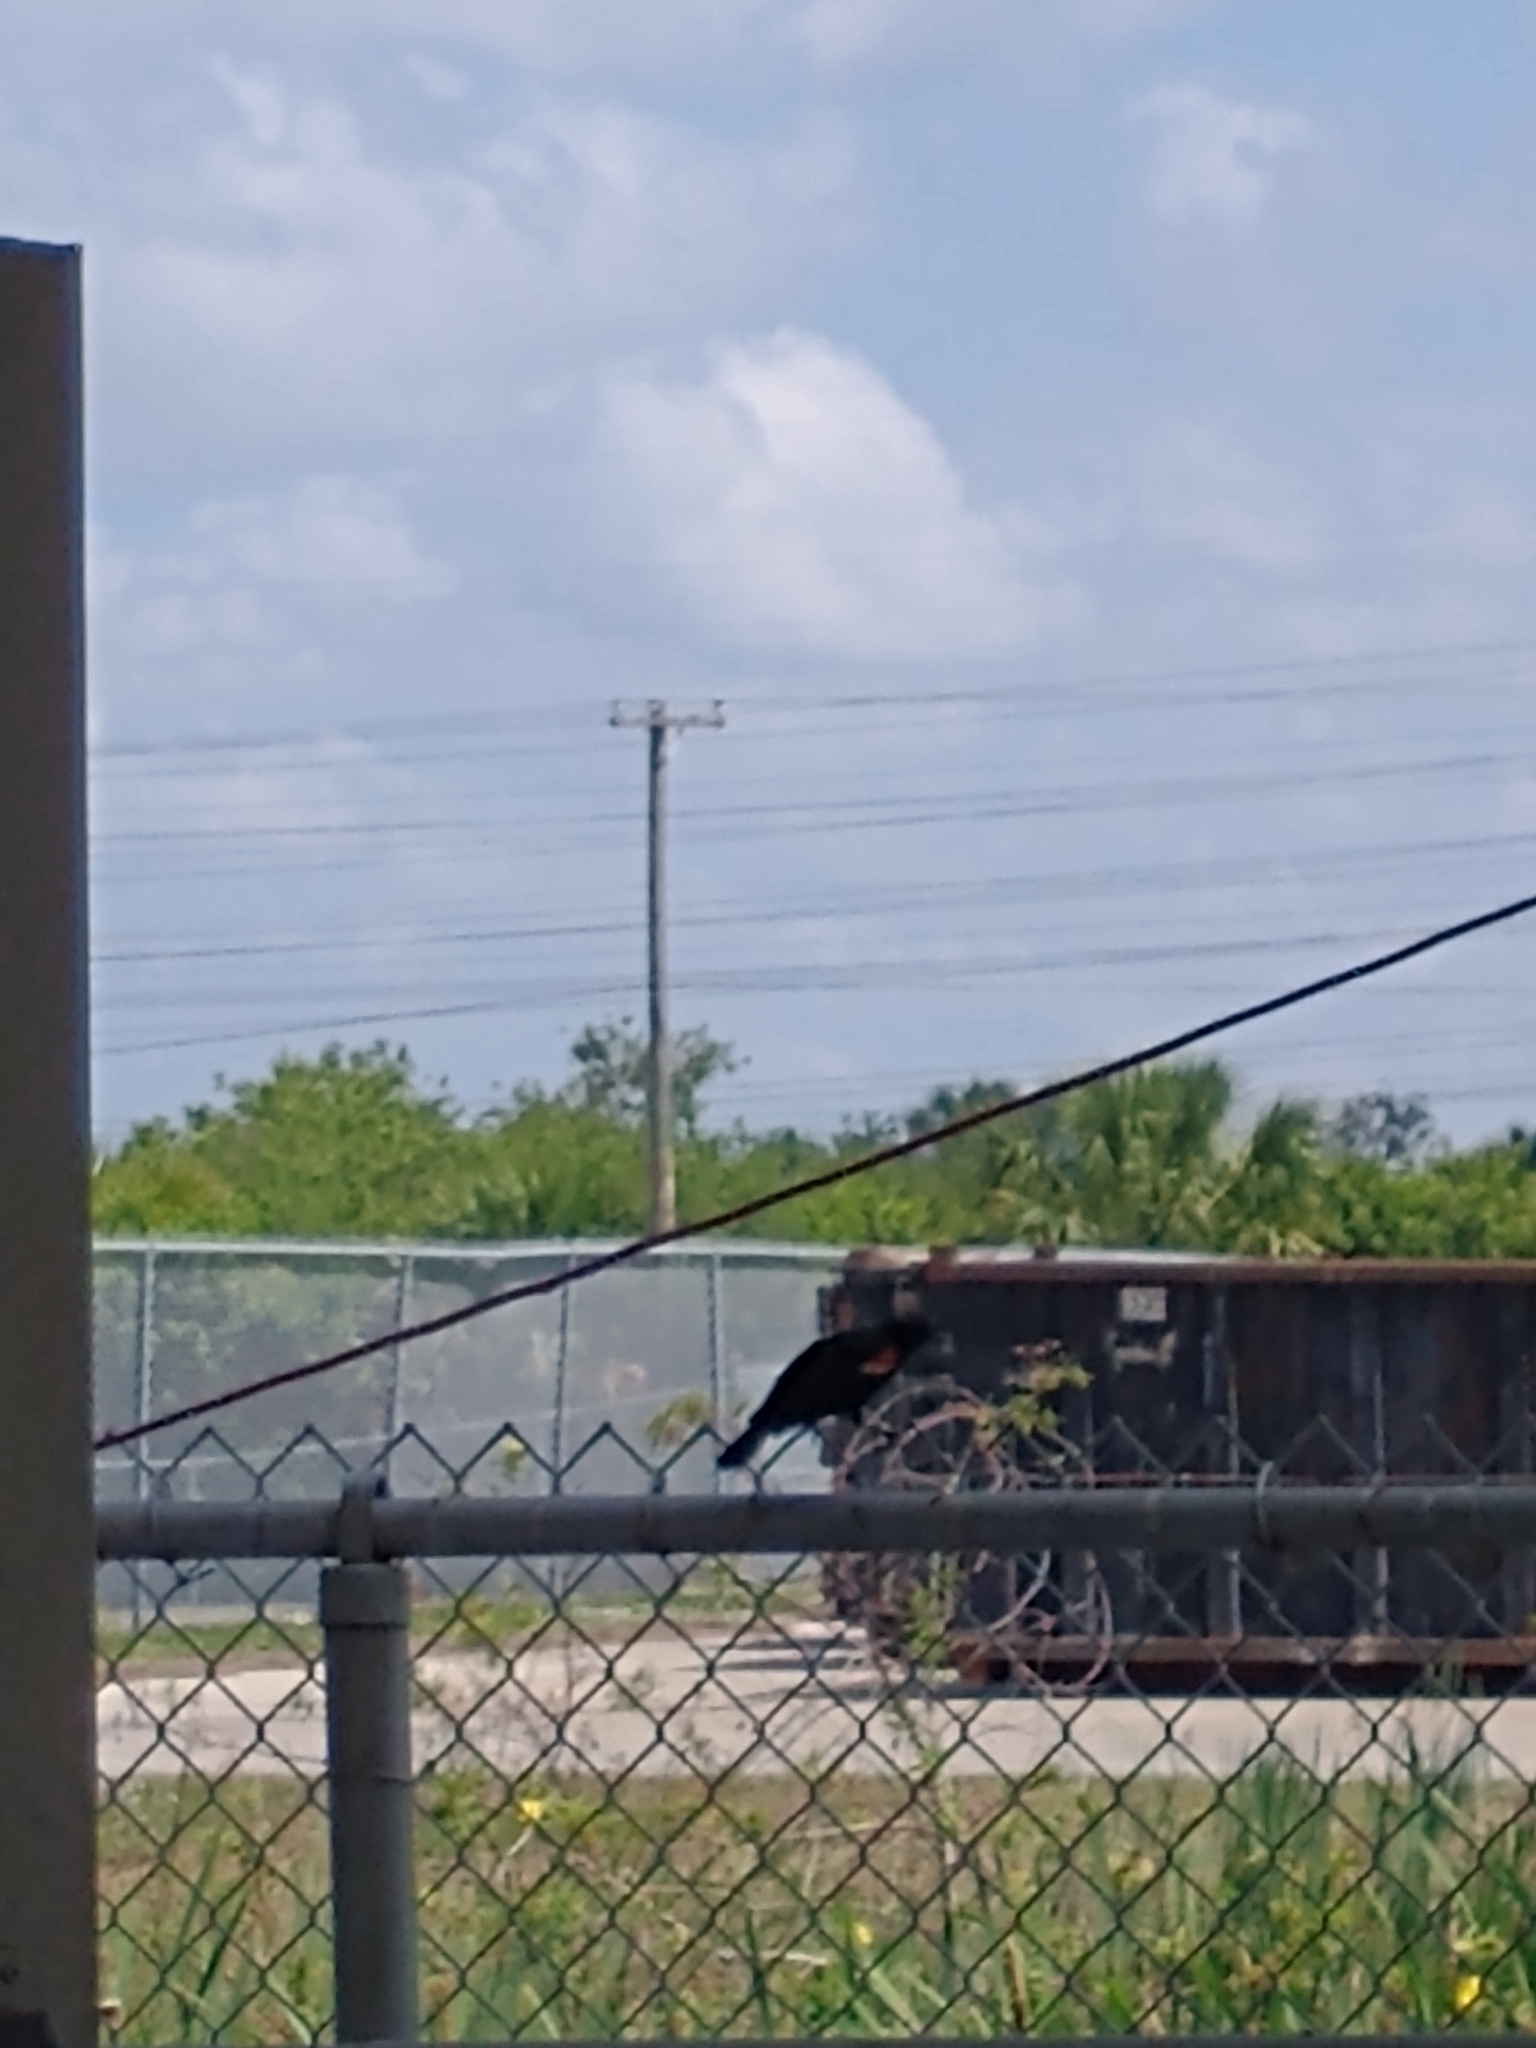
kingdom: Animalia
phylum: Chordata
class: Aves
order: Passeriformes
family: Icteridae
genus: Agelaius
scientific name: Agelaius phoeniceus
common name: Red-winged blackbird
